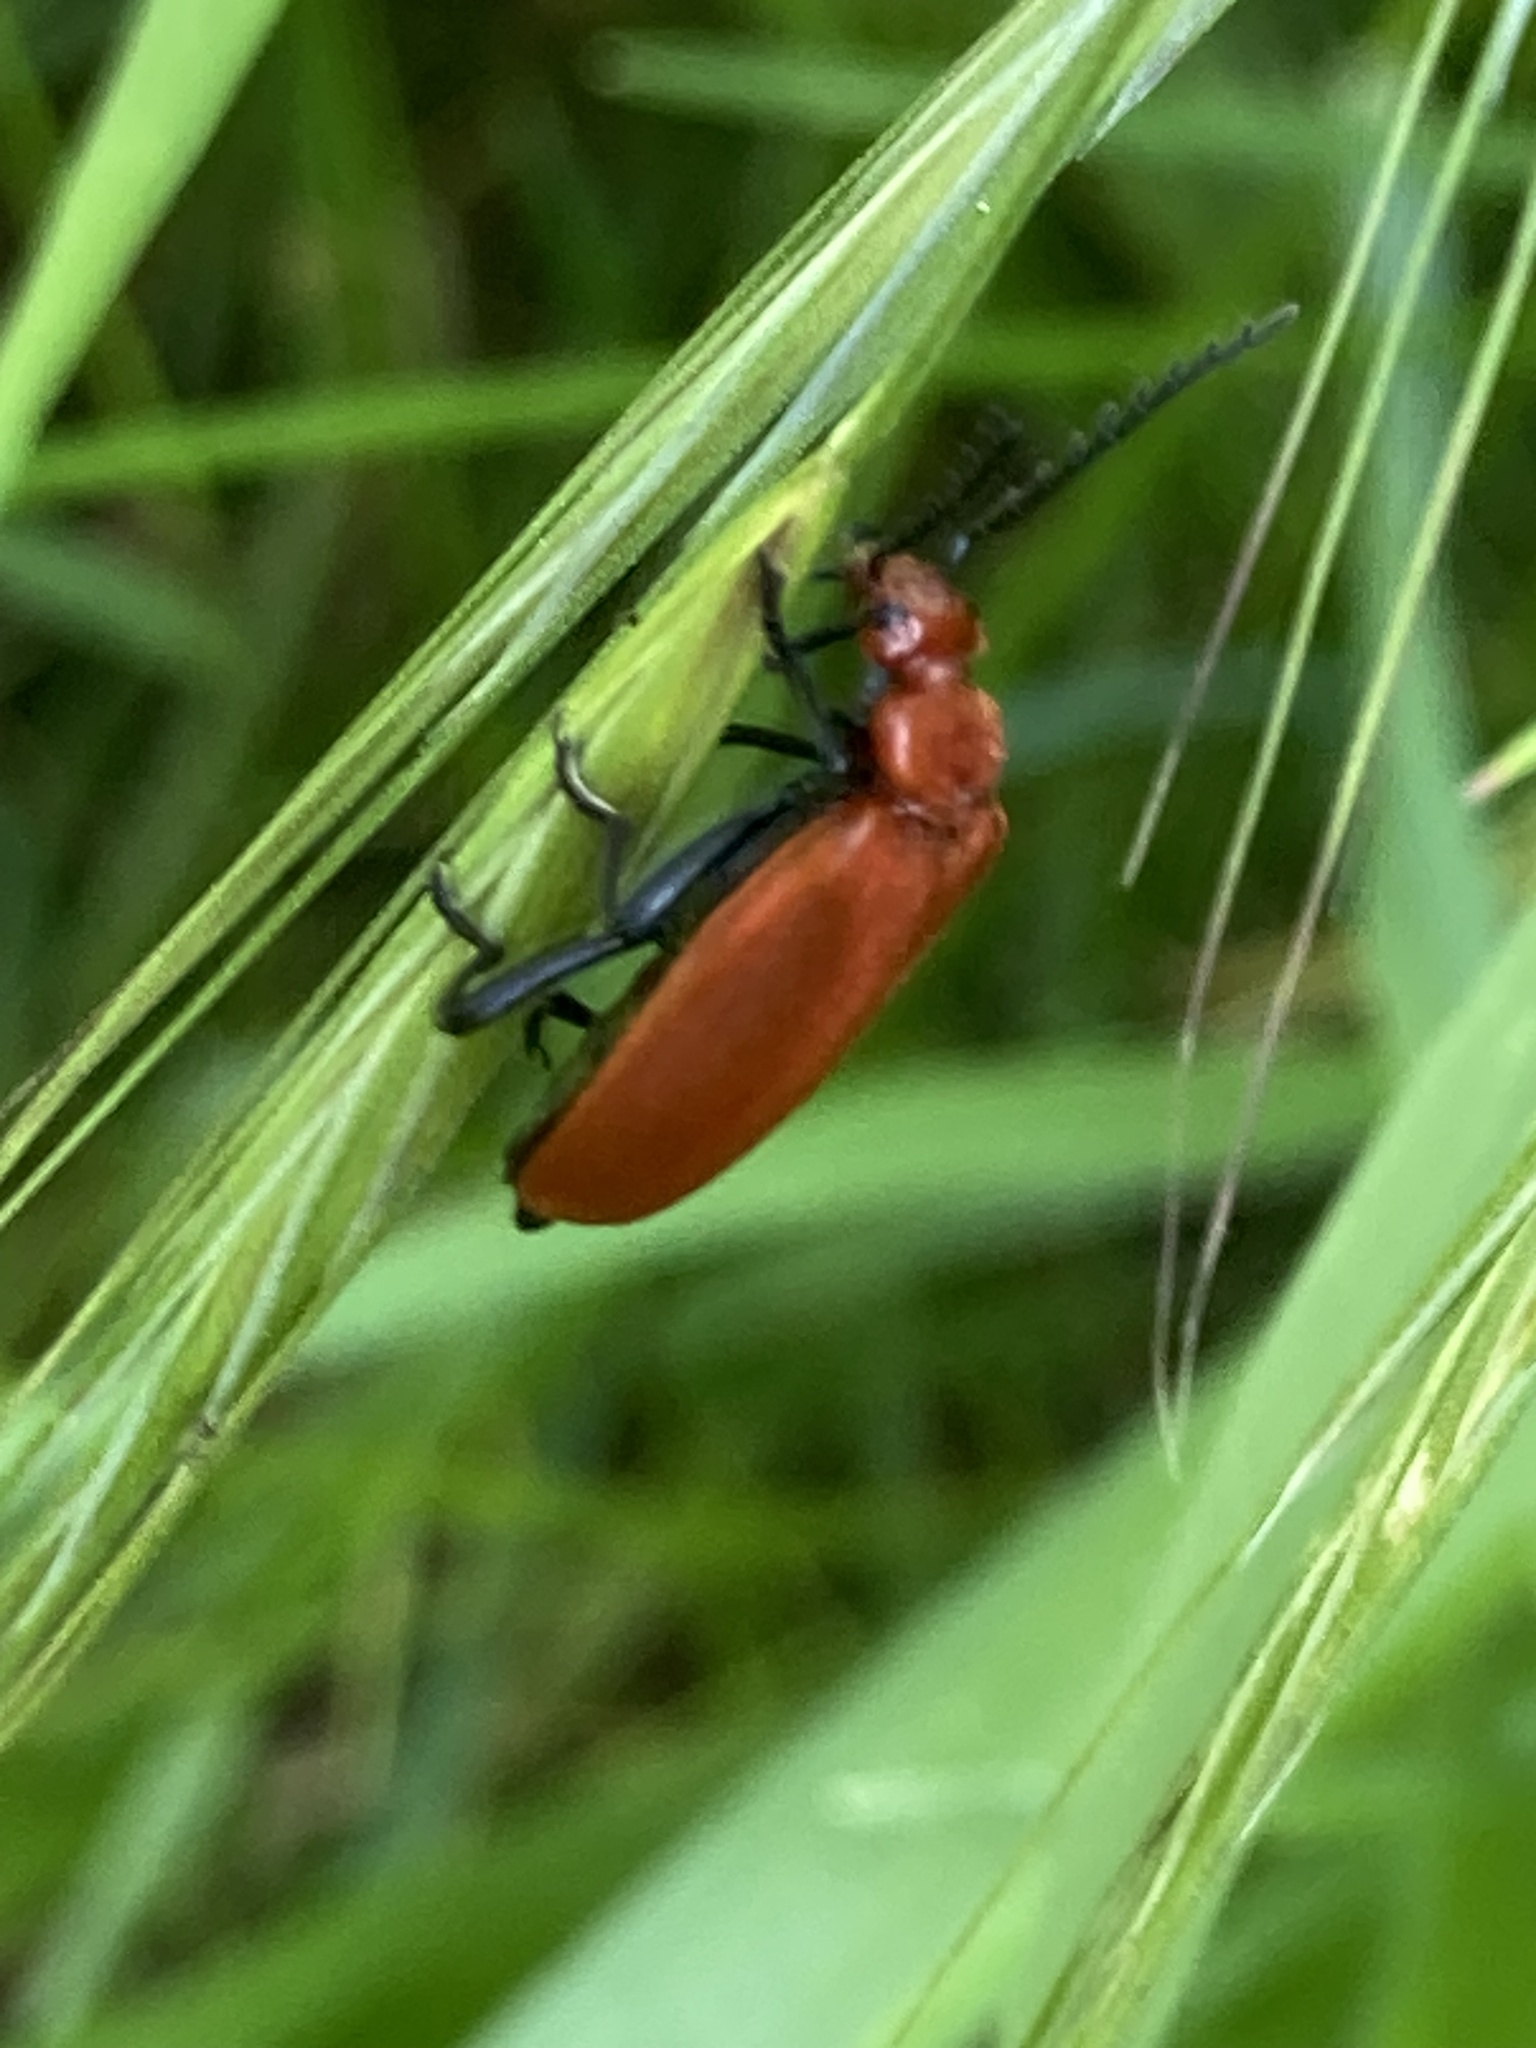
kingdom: Animalia
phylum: Arthropoda
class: Insecta
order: Coleoptera
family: Pyrochroidae
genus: Pyrochroa
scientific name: Pyrochroa serraticornis
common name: Red-headed cardinal beetle
